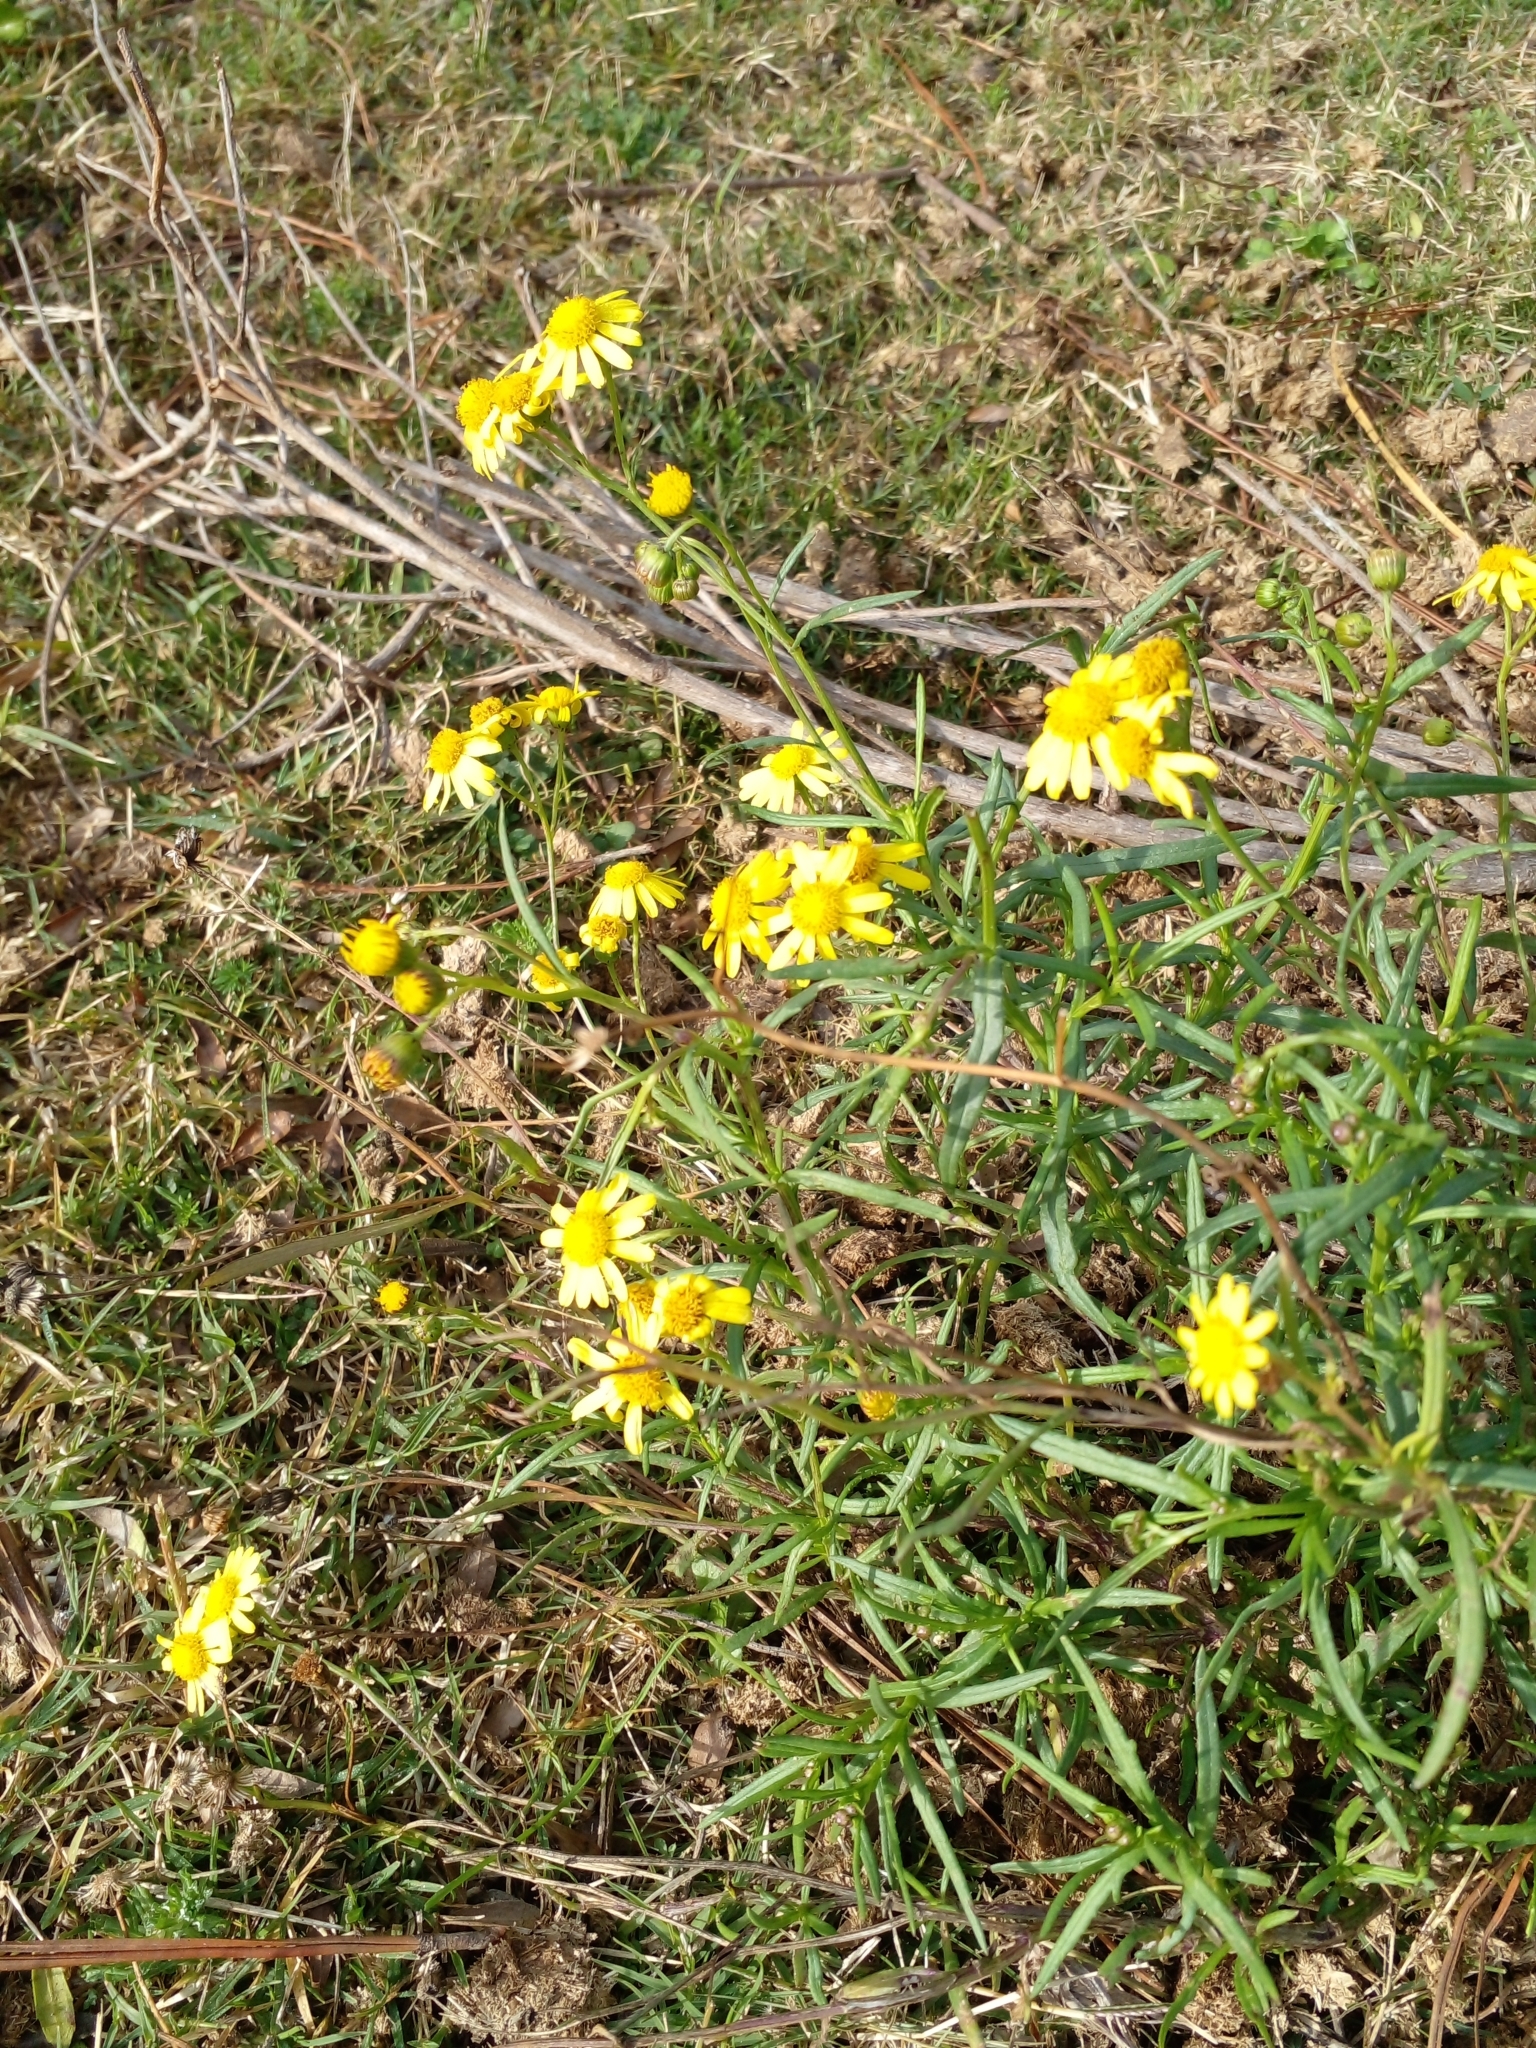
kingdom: Plantae
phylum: Tracheophyta
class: Magnoliopsida
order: Asterales
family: Asteraceae
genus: Senecio
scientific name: Senecio madagascariensis
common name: Madagascar ragwort
